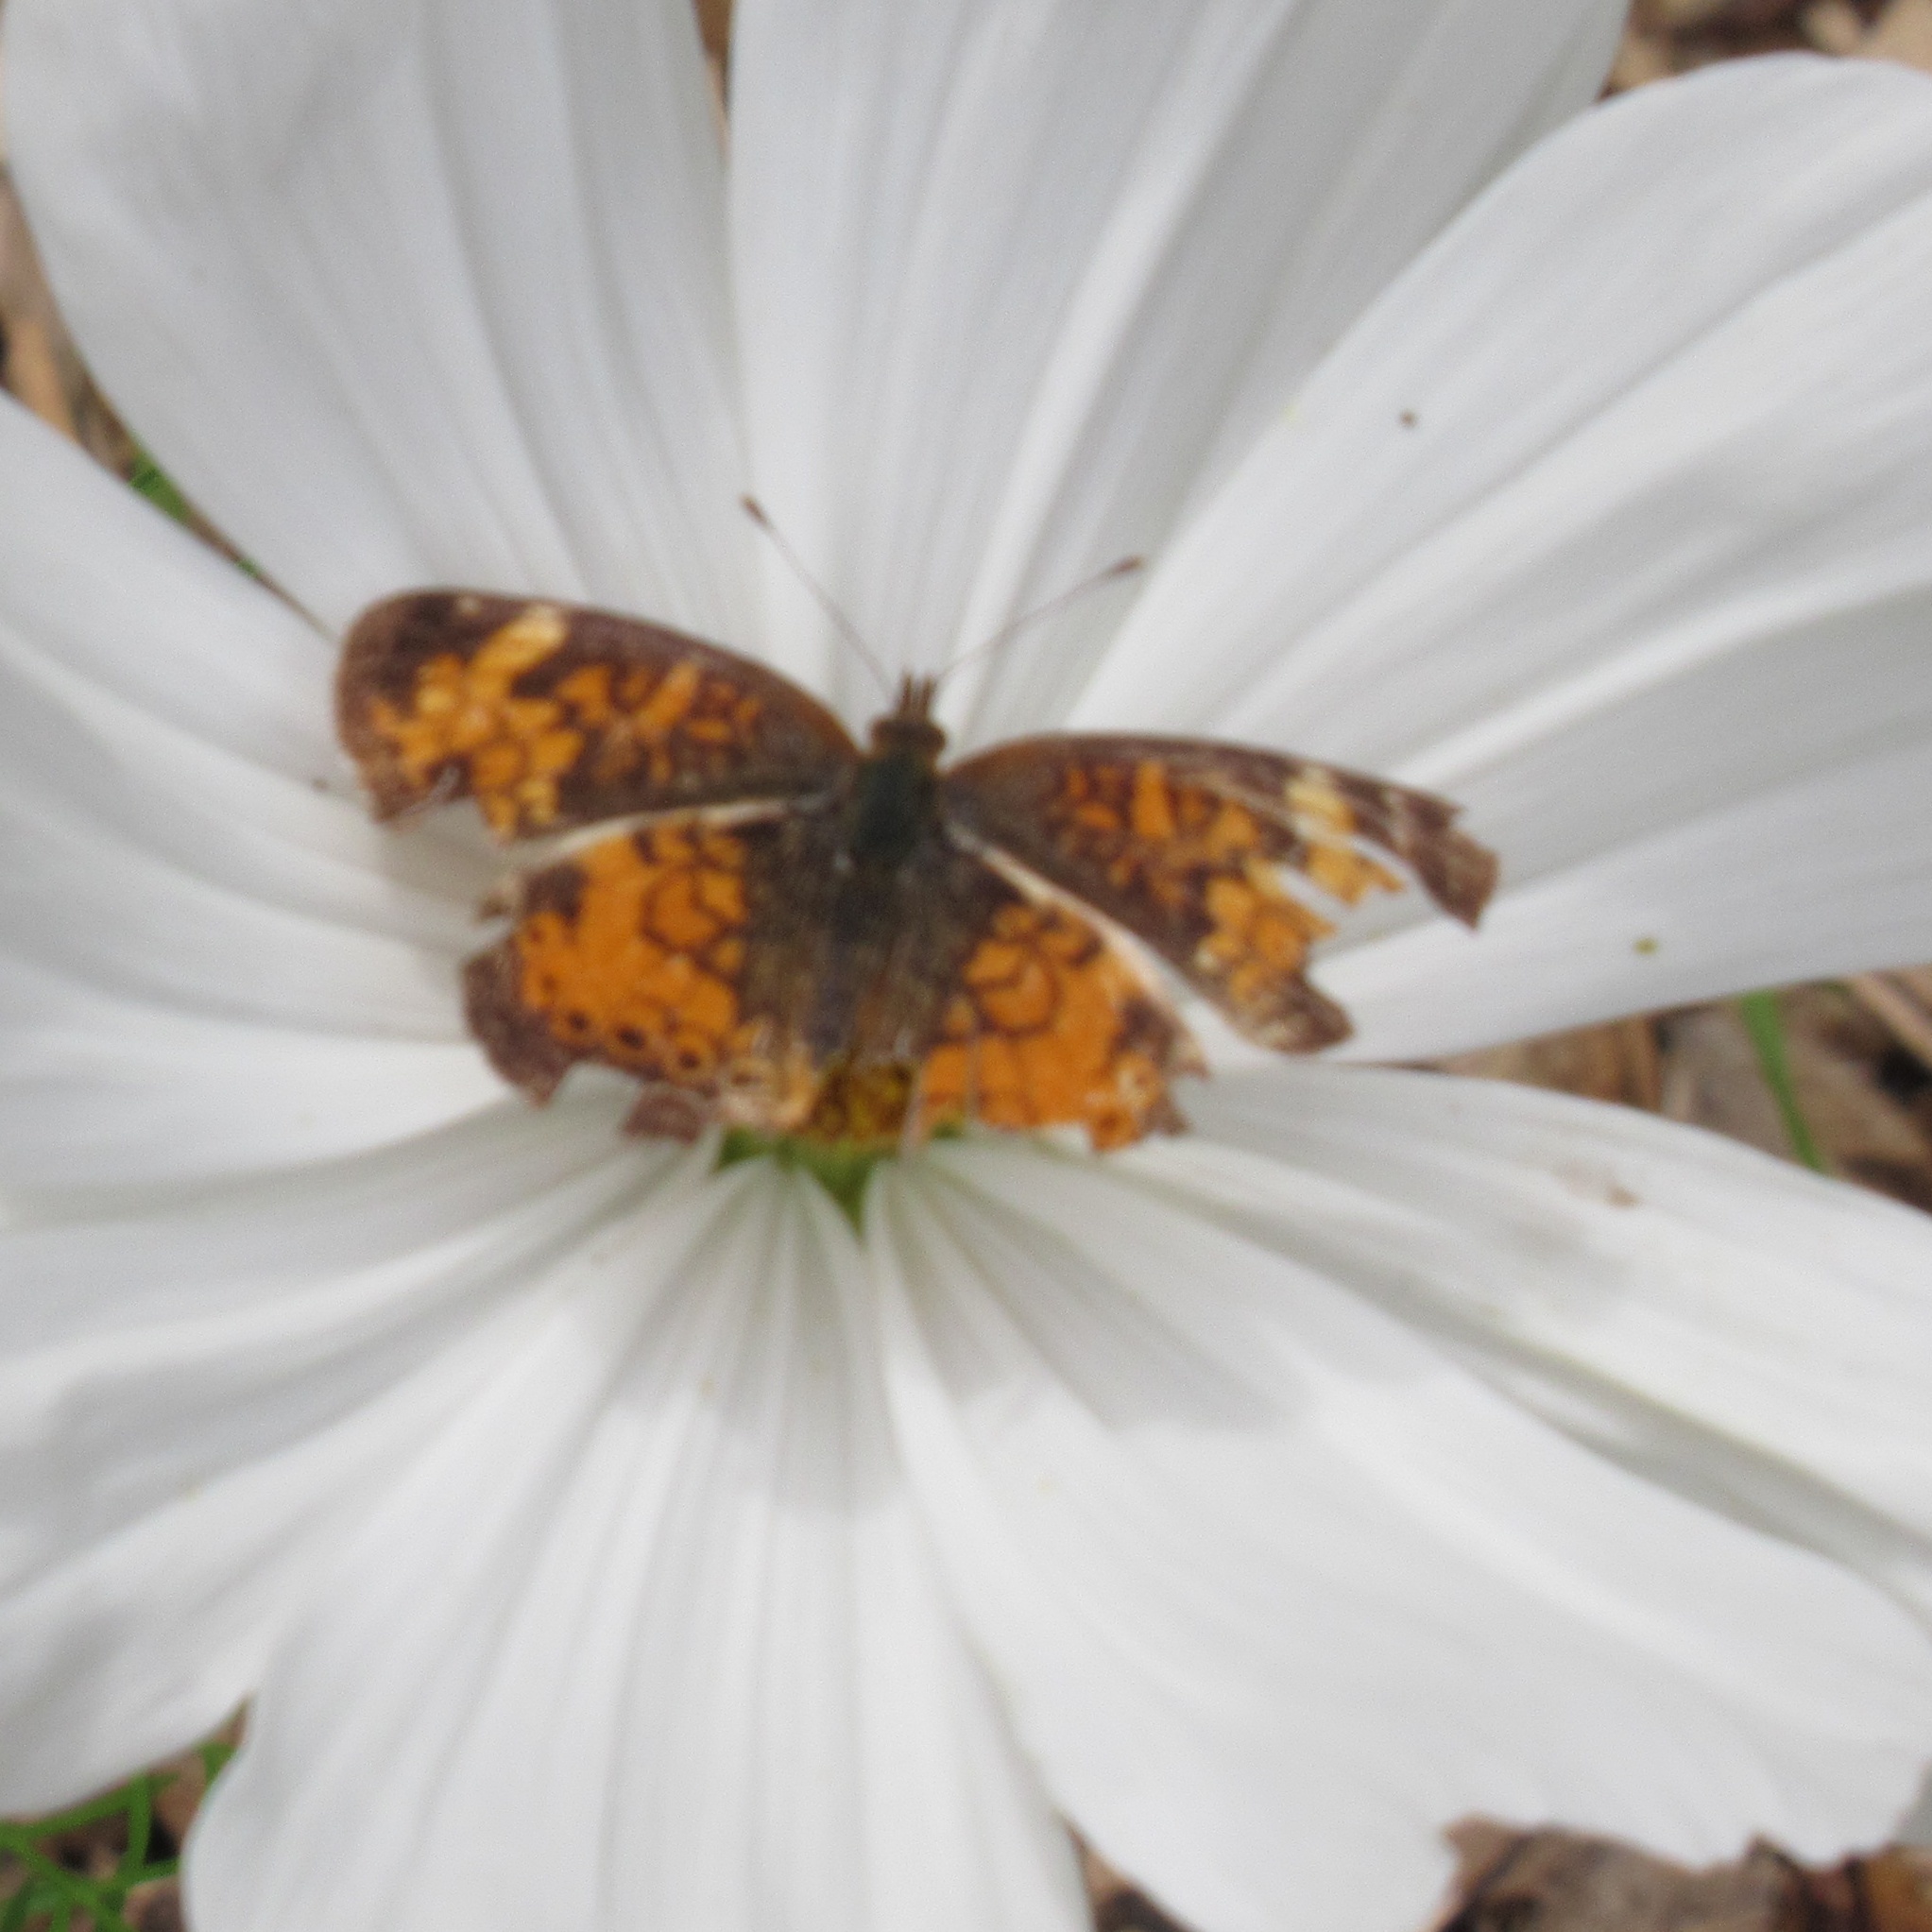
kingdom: Animalia
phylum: Arthropoda
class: Insecta
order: Lepidoptera
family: Nymphalidae
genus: Phyciodes
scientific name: Phyciodes tharos
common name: Pearl crescent
